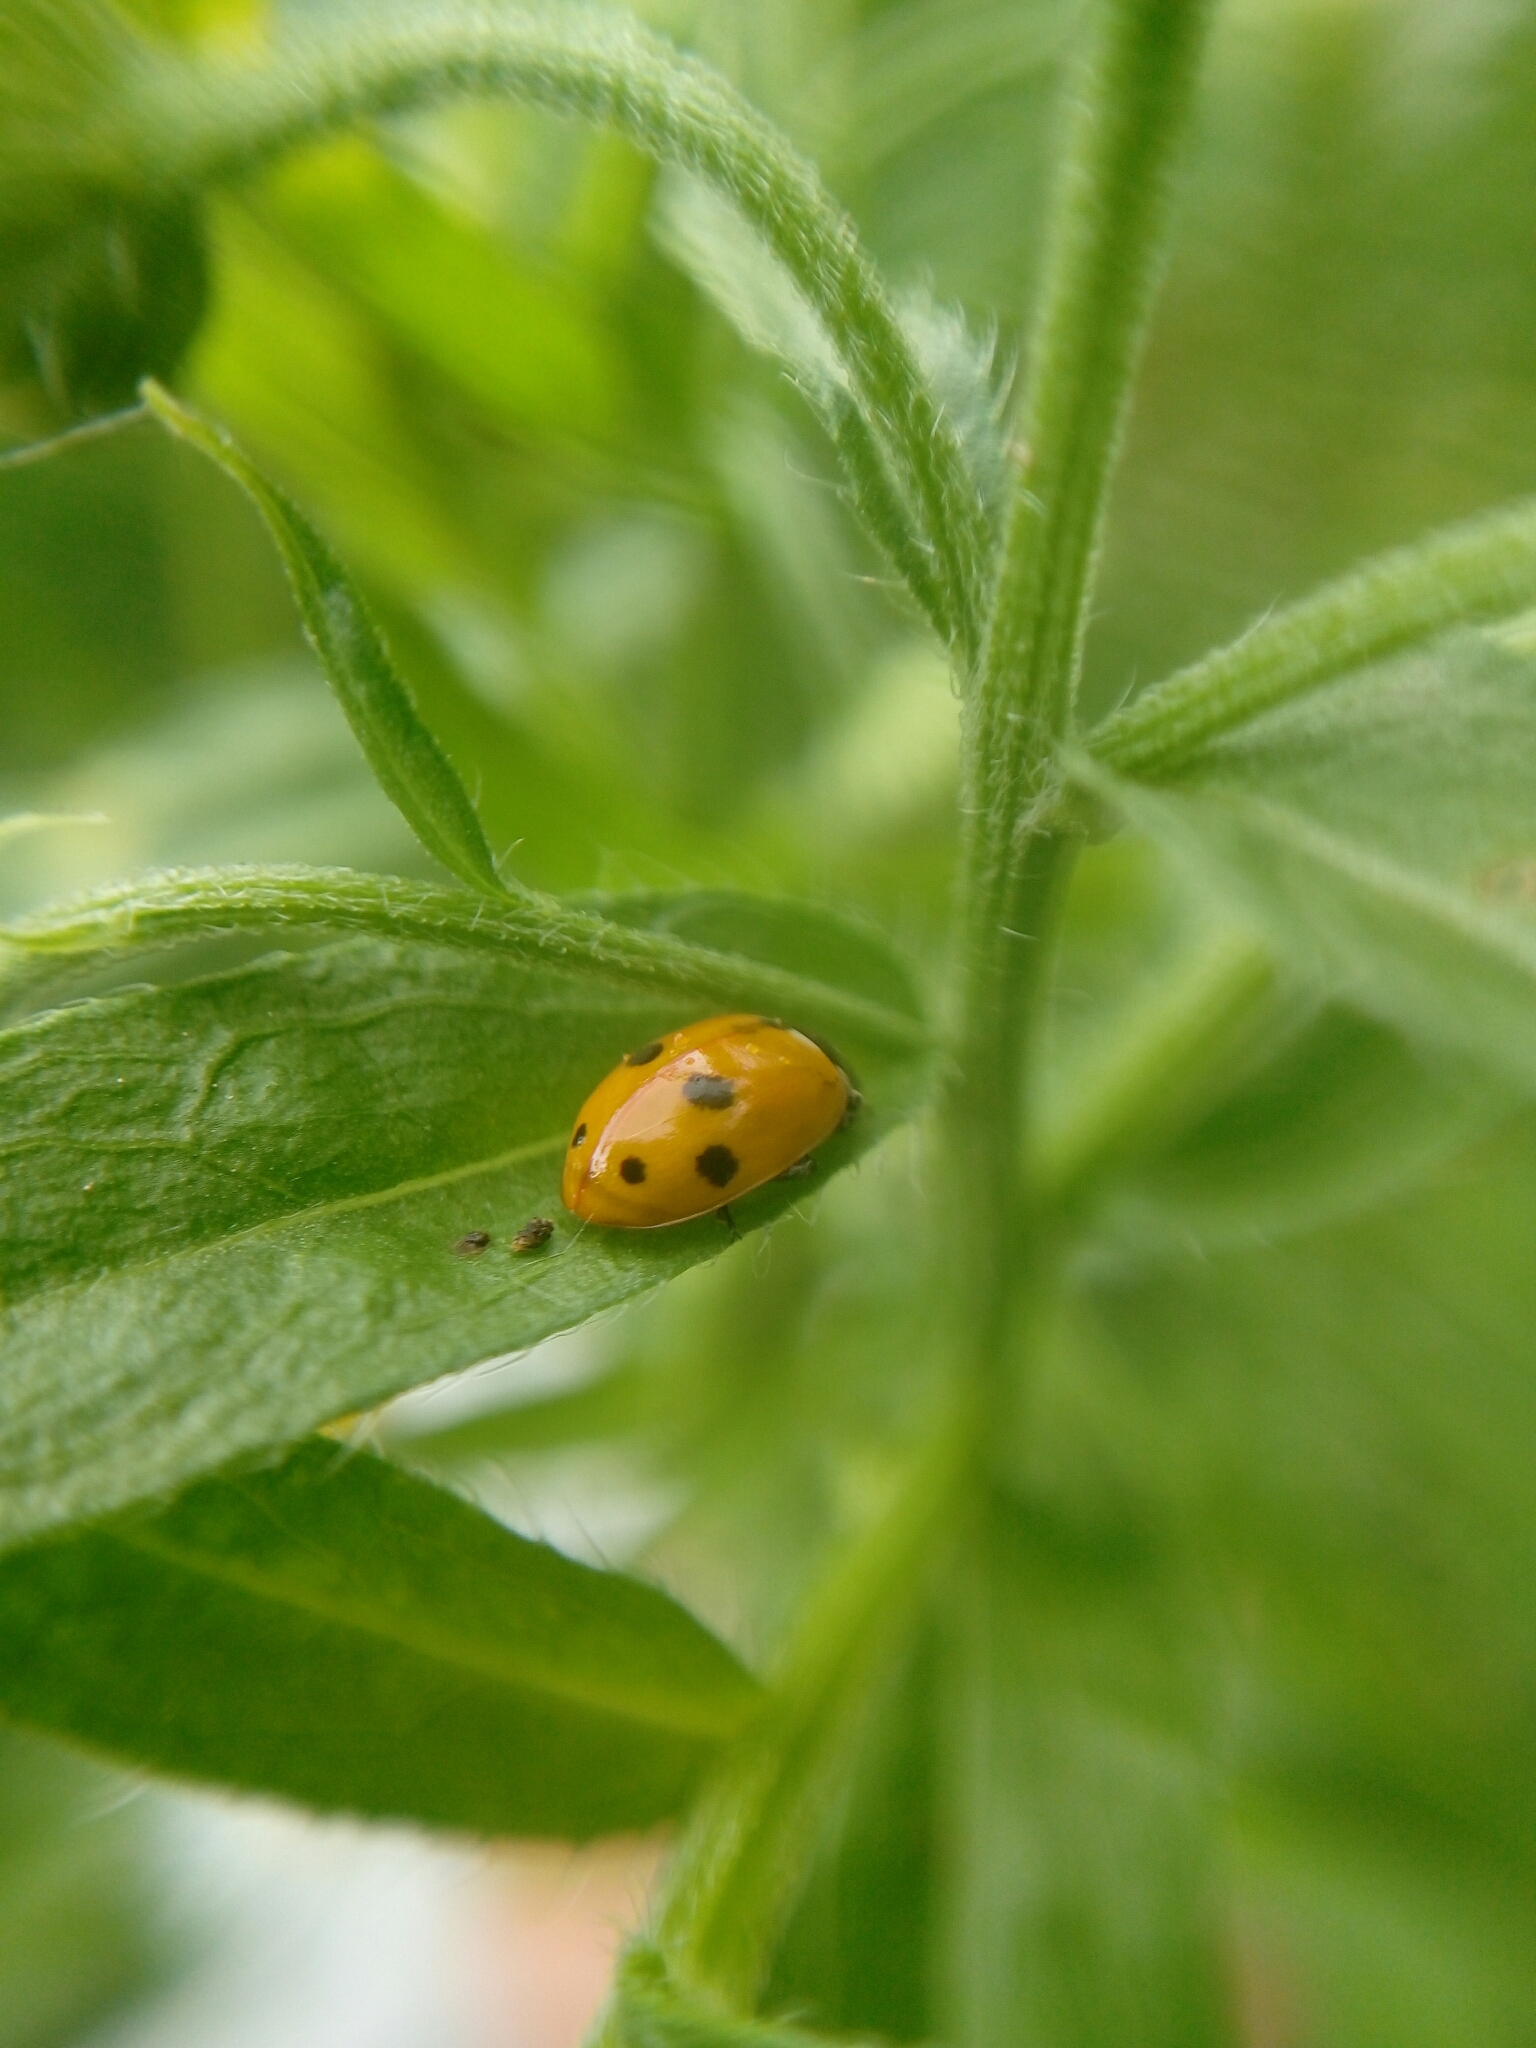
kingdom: Animalia
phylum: Arthropoda
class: Insecta
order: Coleoptera
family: Coccinellidae
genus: Hippodamia
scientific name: Hippodamia variegata
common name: Ladybird beetle
